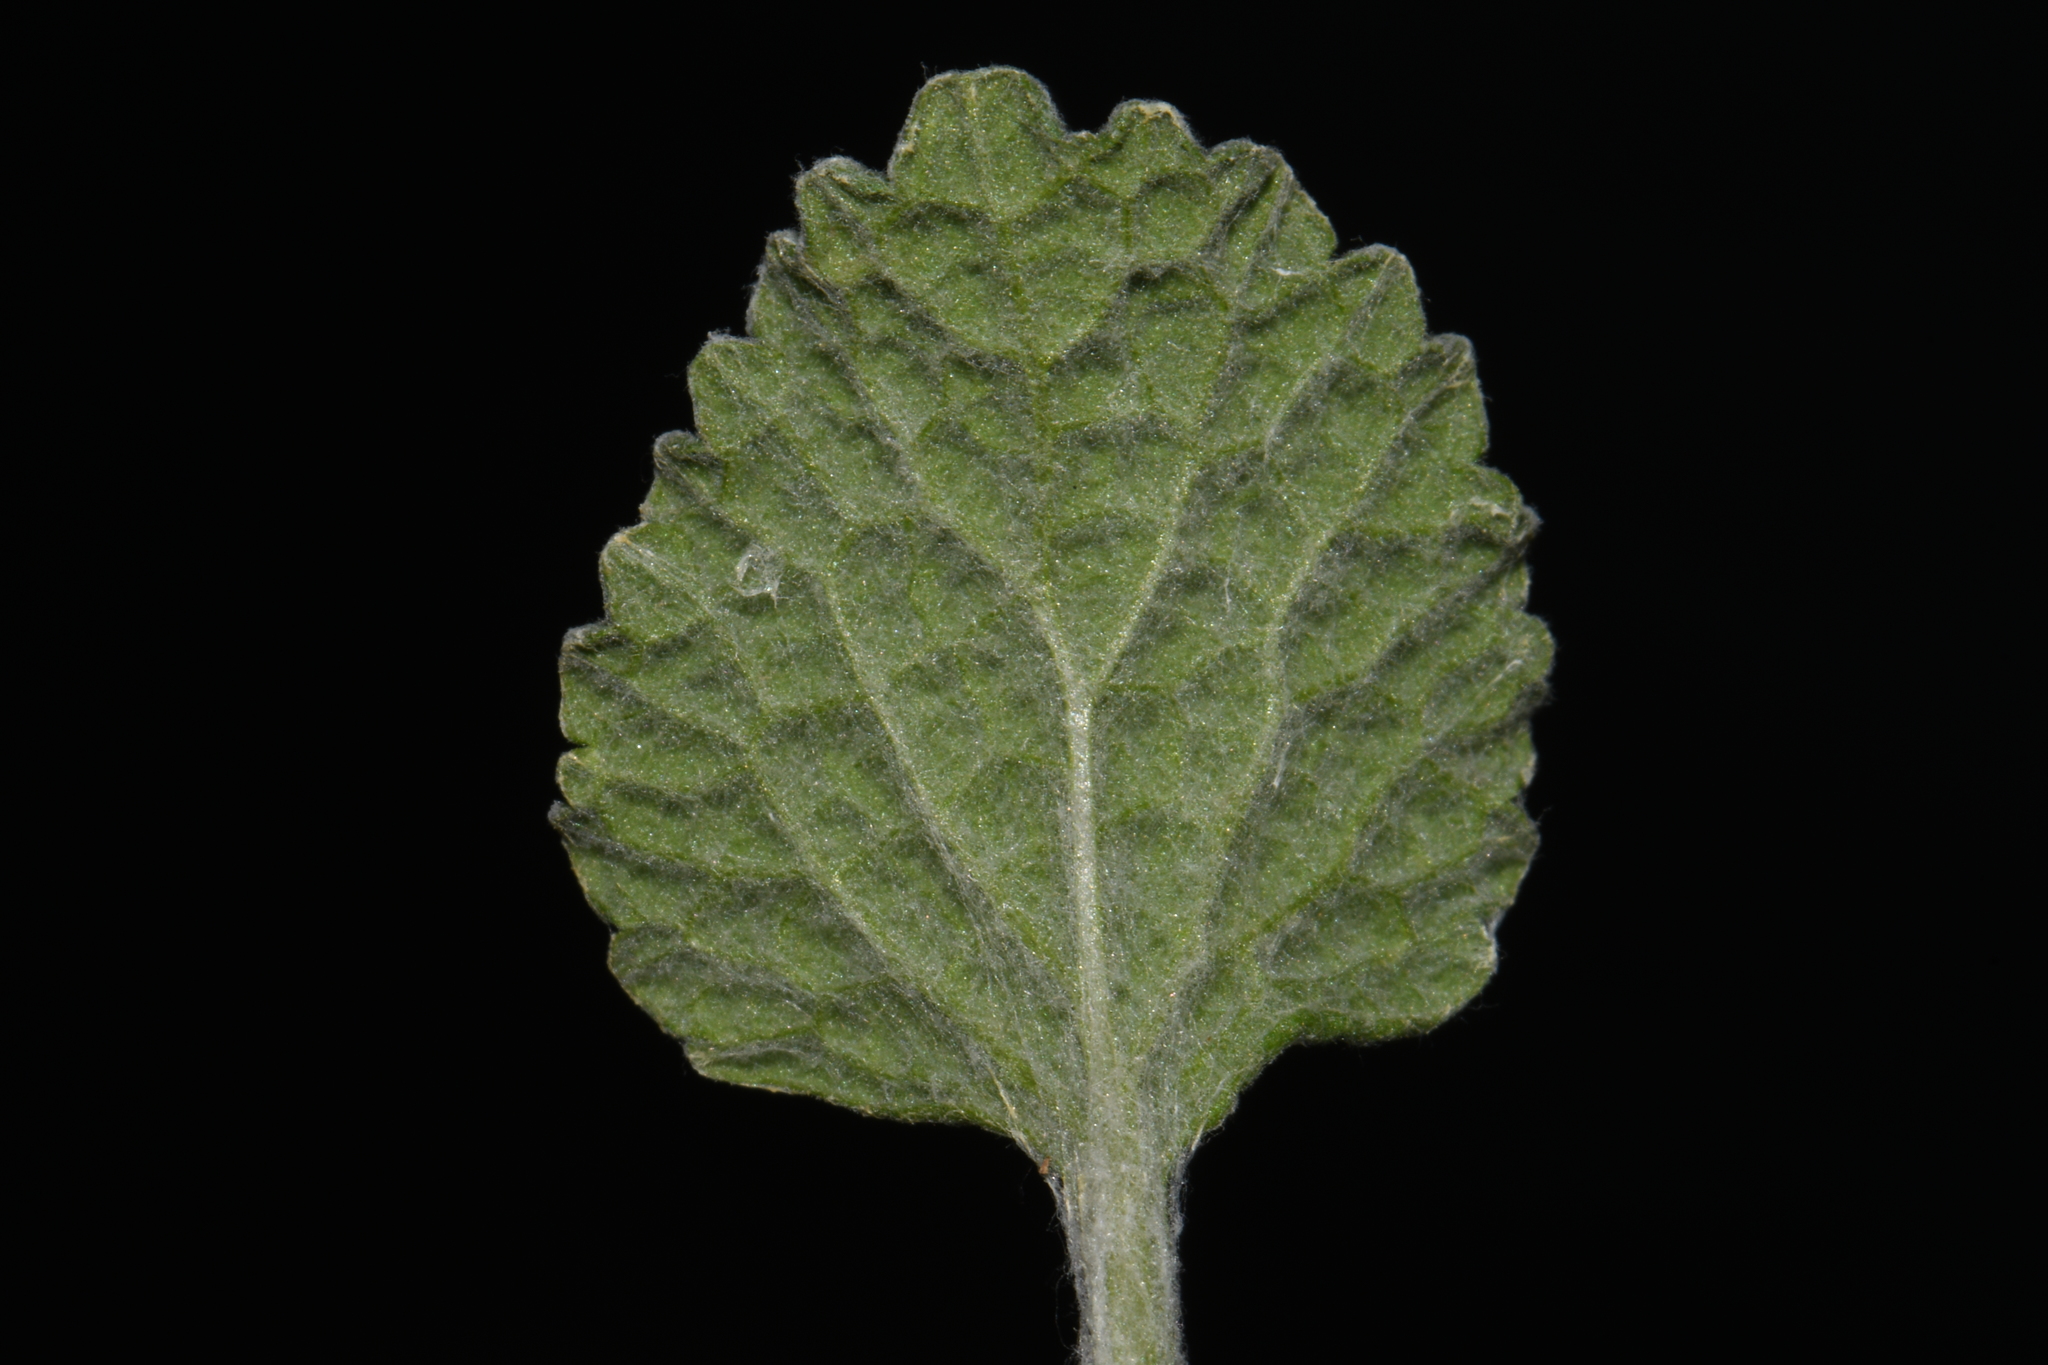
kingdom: Plantae
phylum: Tracheophyta
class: Magnoliopsida
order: Lamiales
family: Lamiaceae
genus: Marrubium
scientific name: Marrubium vulgare
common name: Horehound
